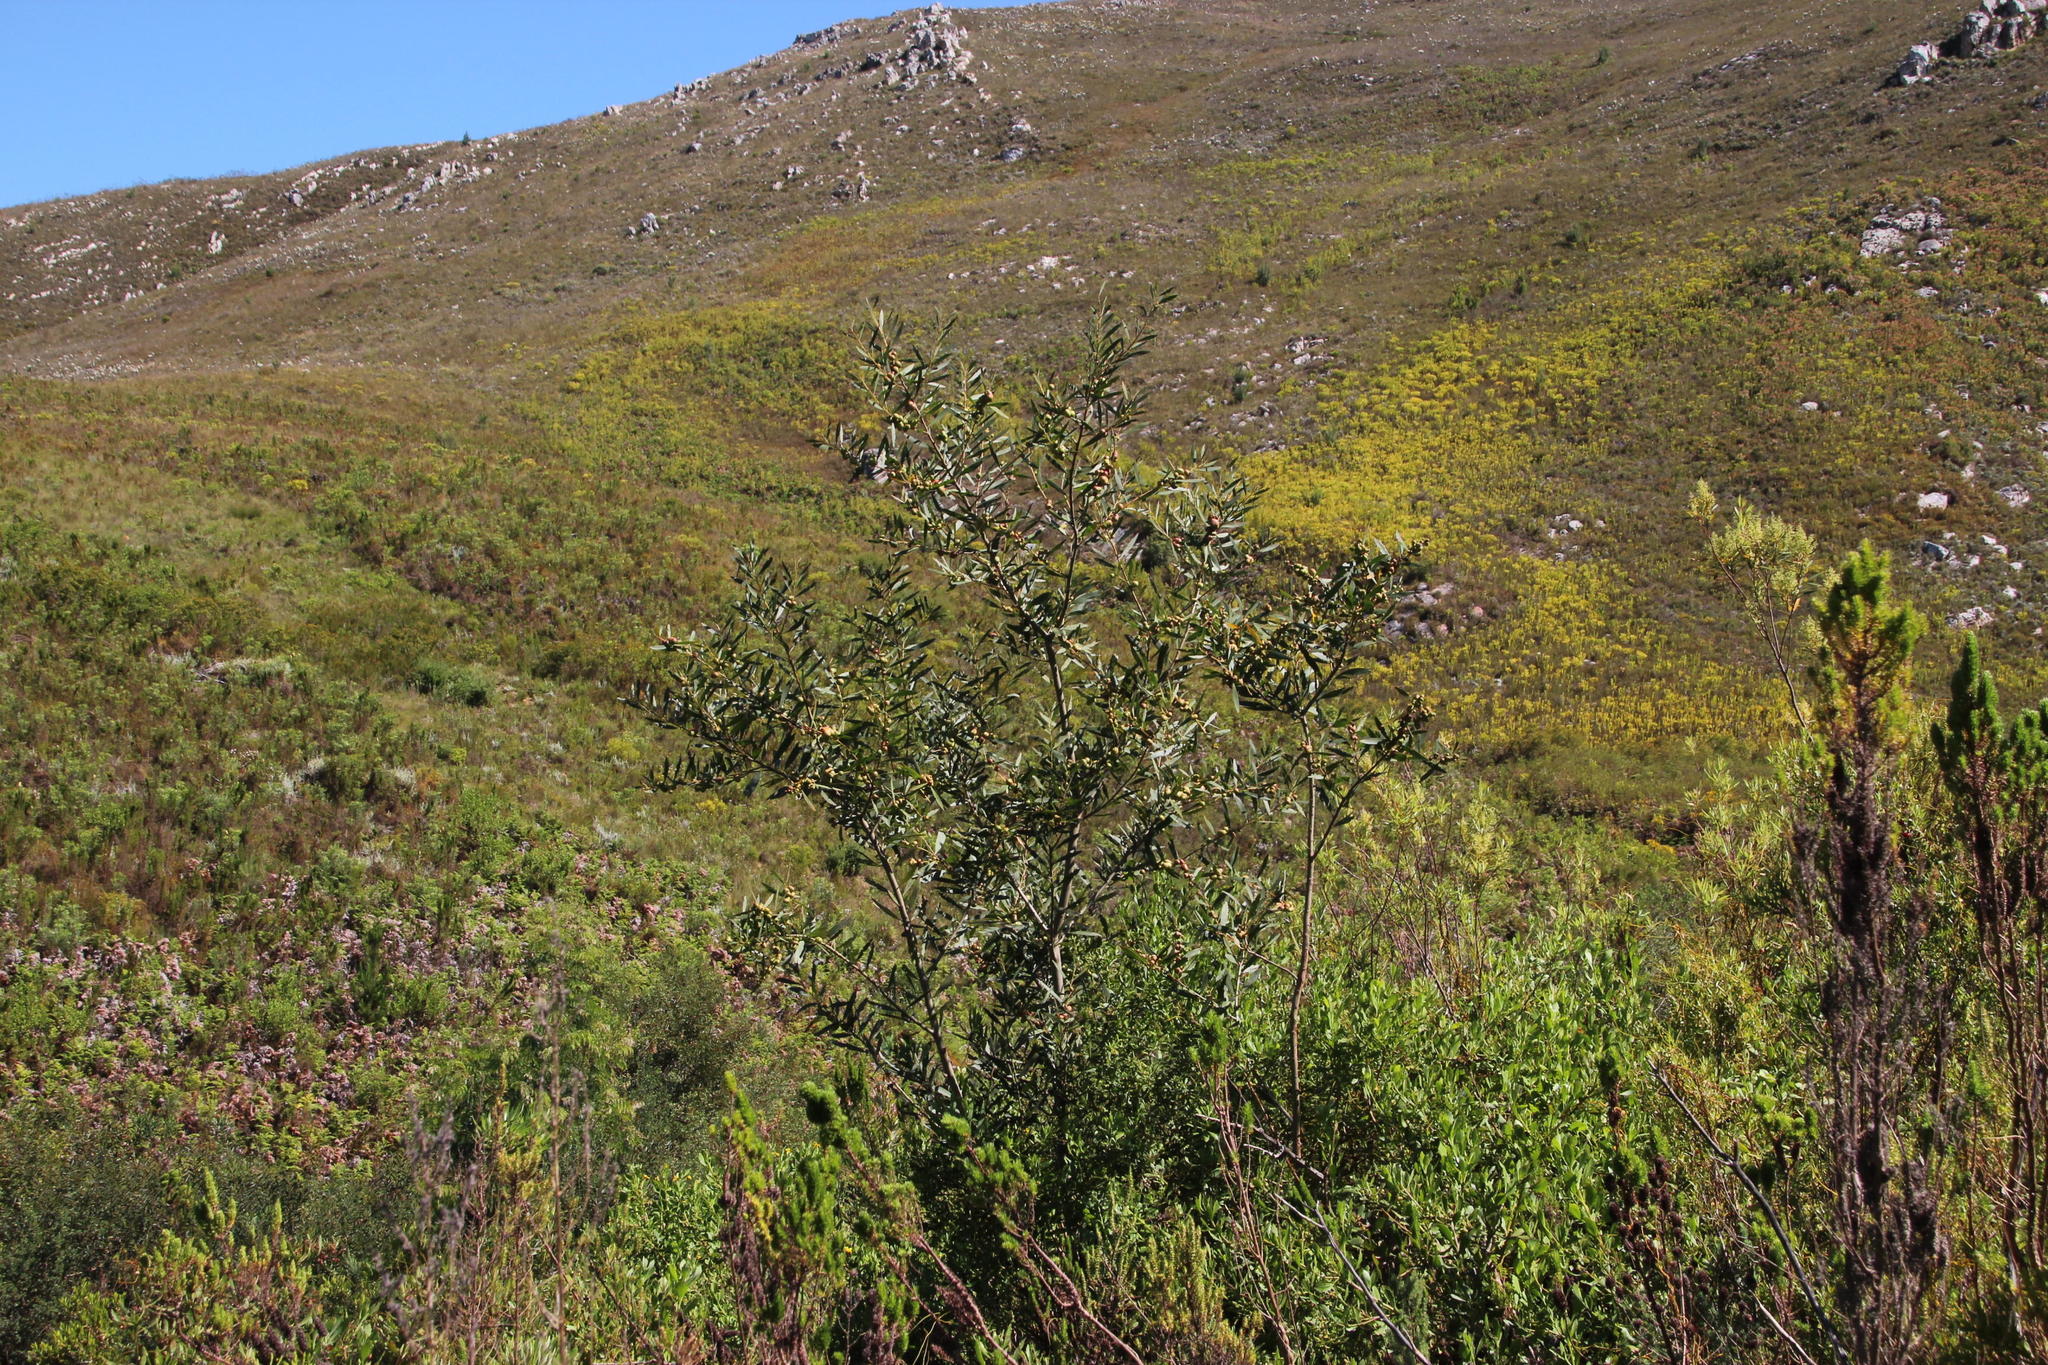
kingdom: Plantae
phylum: Tracheophyta
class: Magnoliopsida
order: Fabales
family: Fabaceae
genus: Acacia
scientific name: Acacia longifolia
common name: Sydney golden wattle
